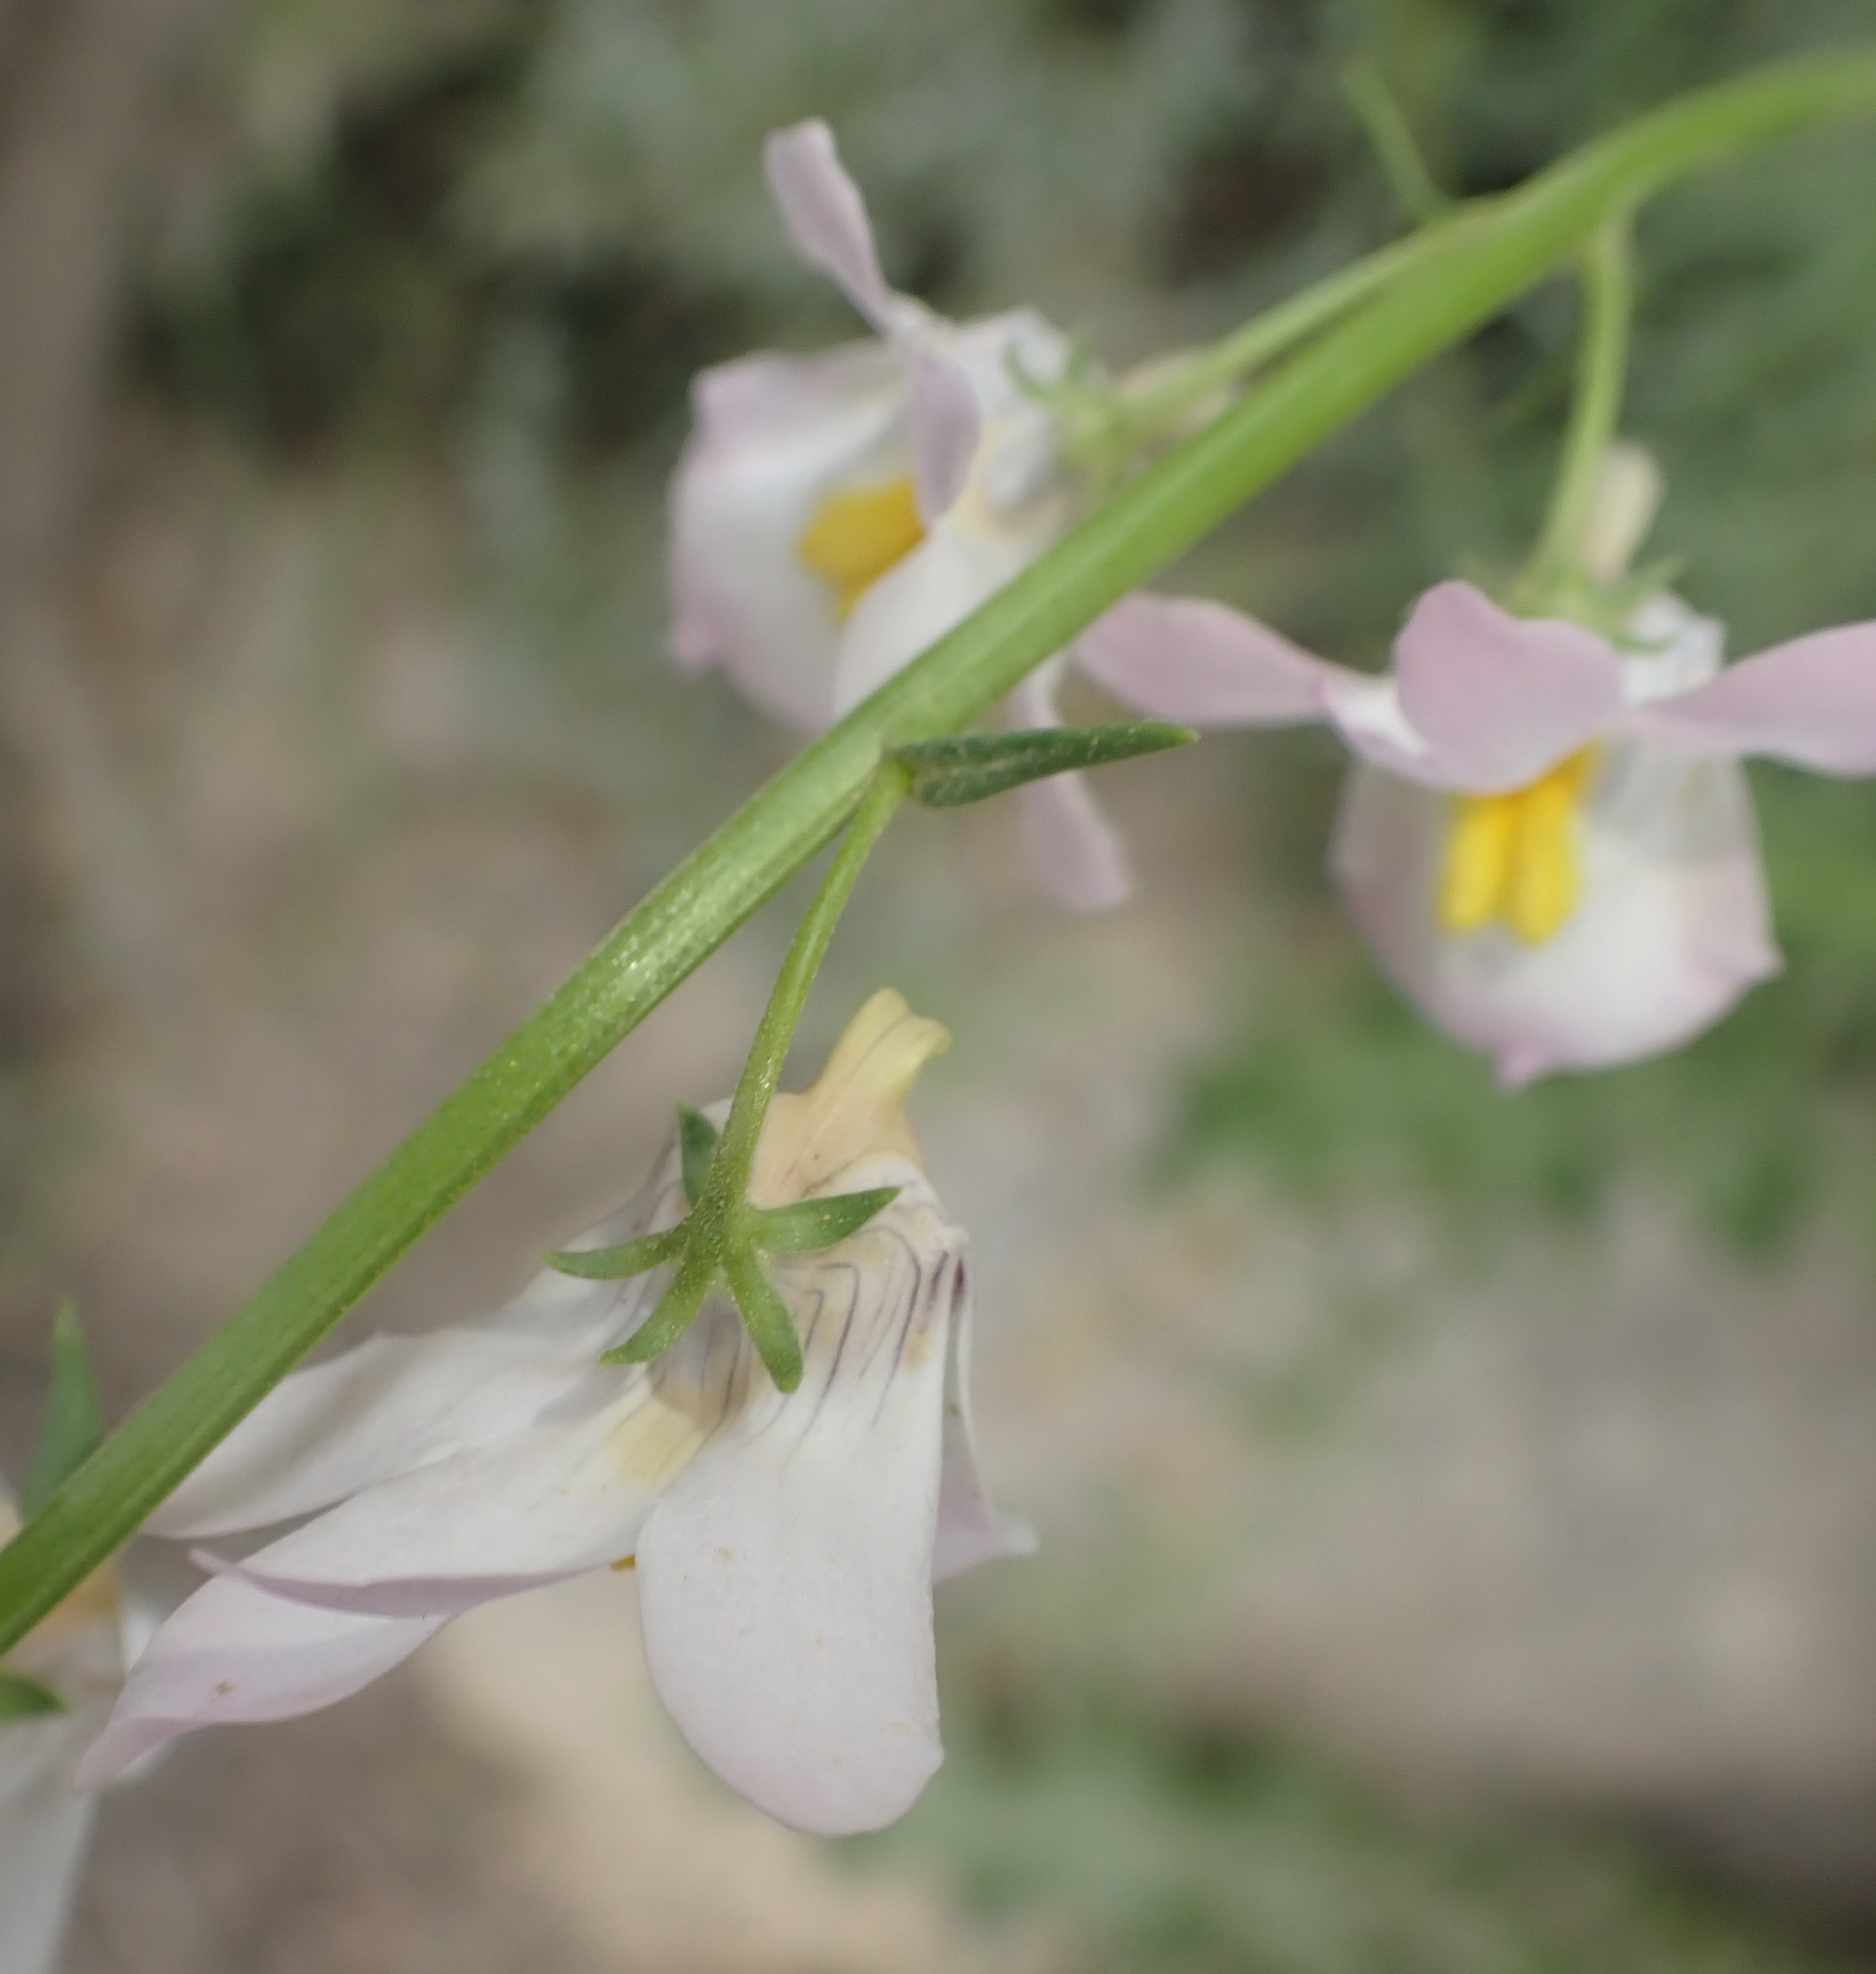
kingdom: Plantae
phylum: Tracheophyta
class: Magnoliopsida
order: Lamiales
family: Scrophulariaceae
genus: Nemesia
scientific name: Nemesia fruticans
